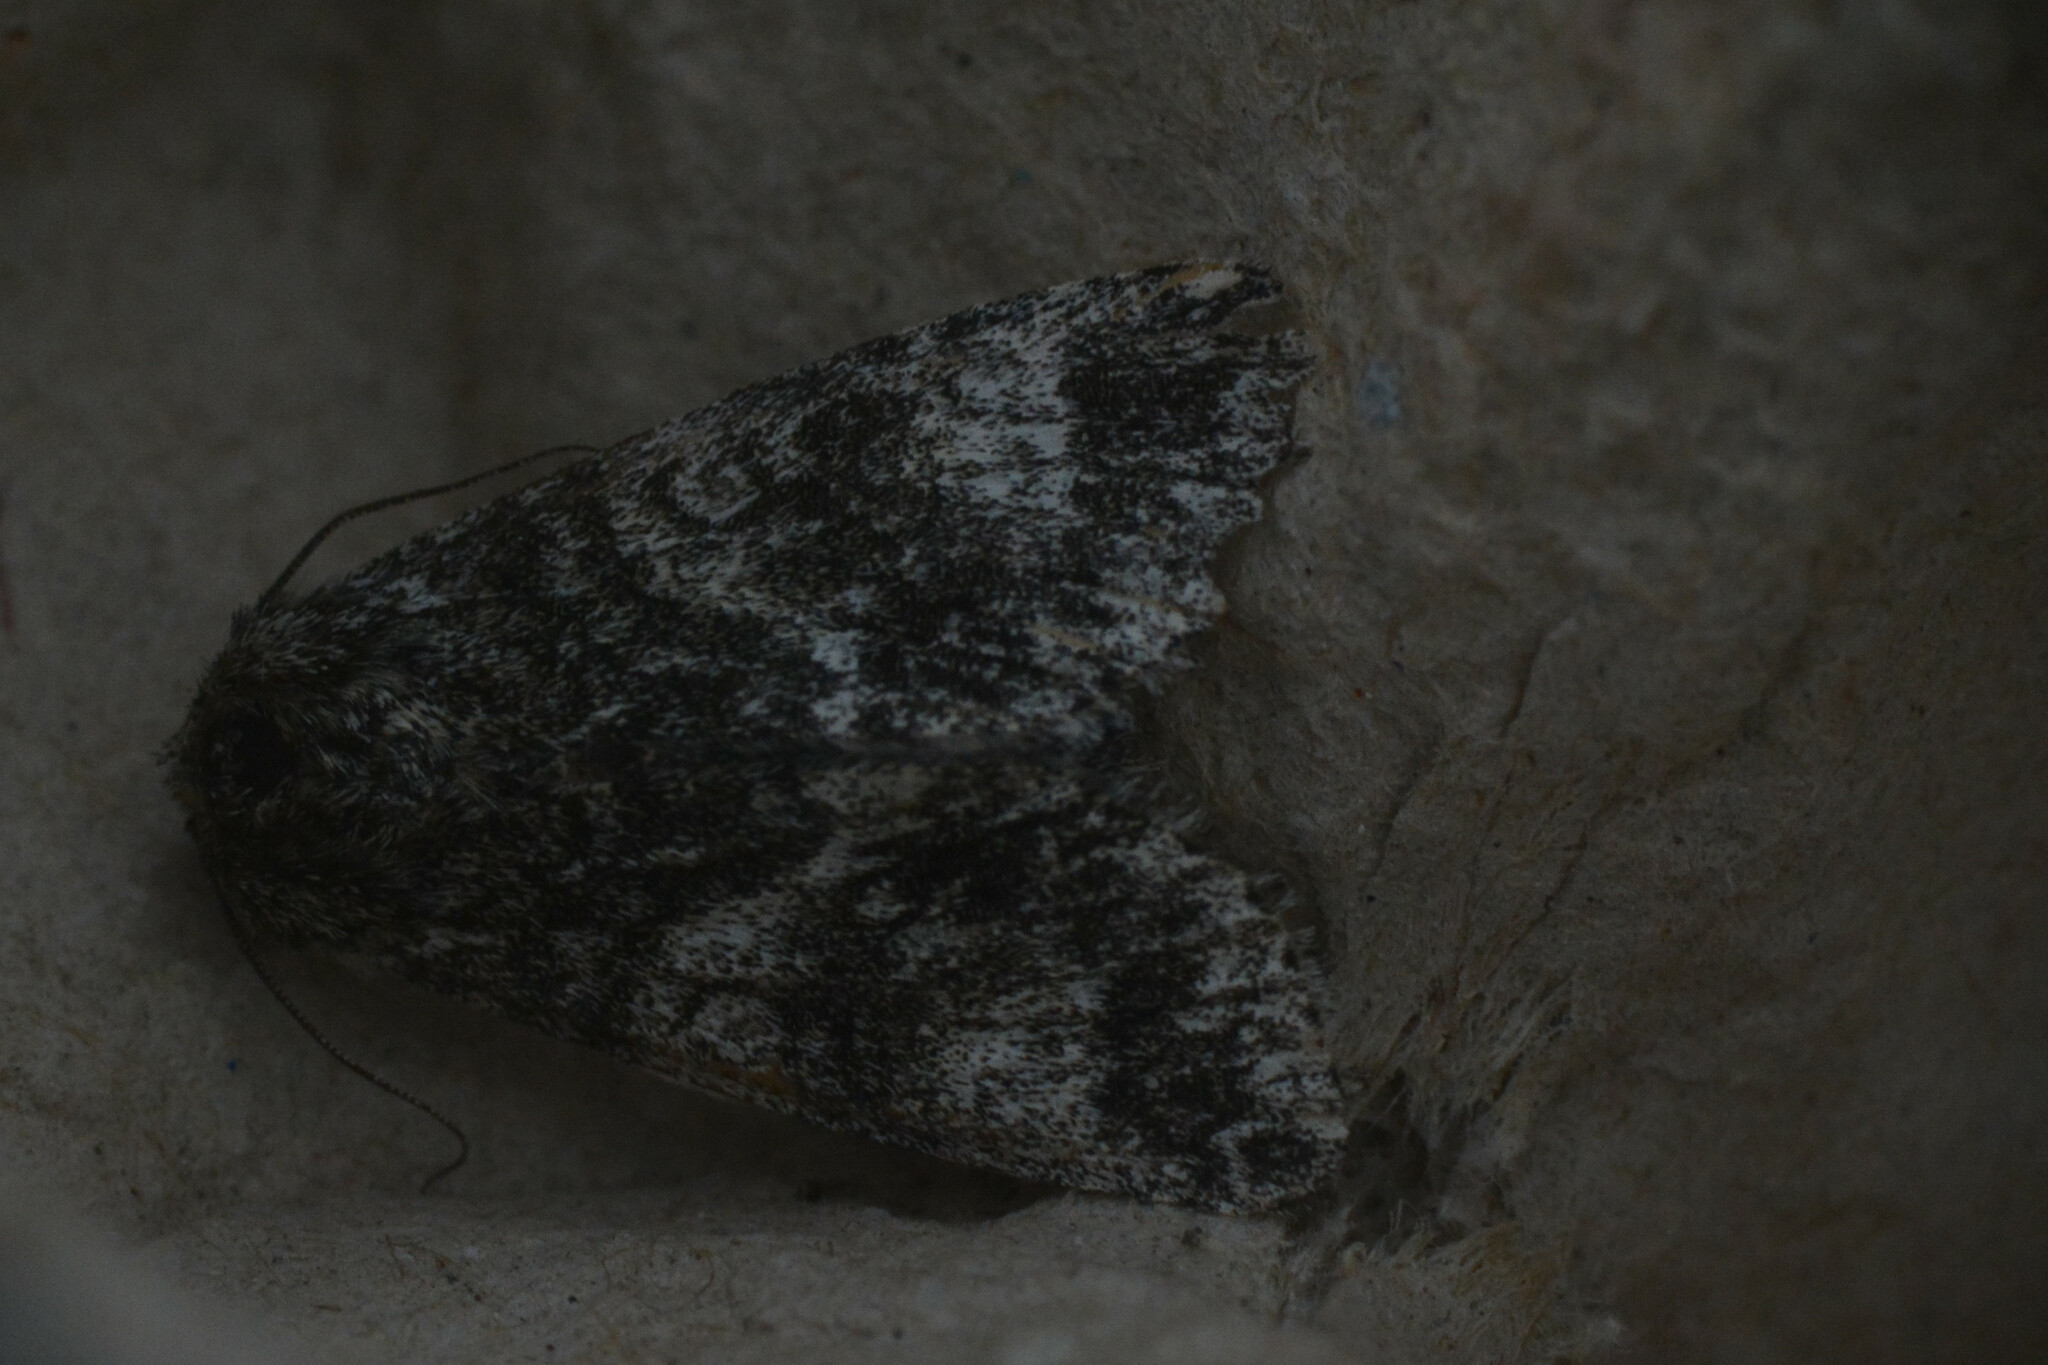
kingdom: Animalia
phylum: Arthropoda
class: Insecta
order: Lepidoptera
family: Noctuidae
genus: Acronicta
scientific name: Acronicta megacephala
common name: Poplar grey
